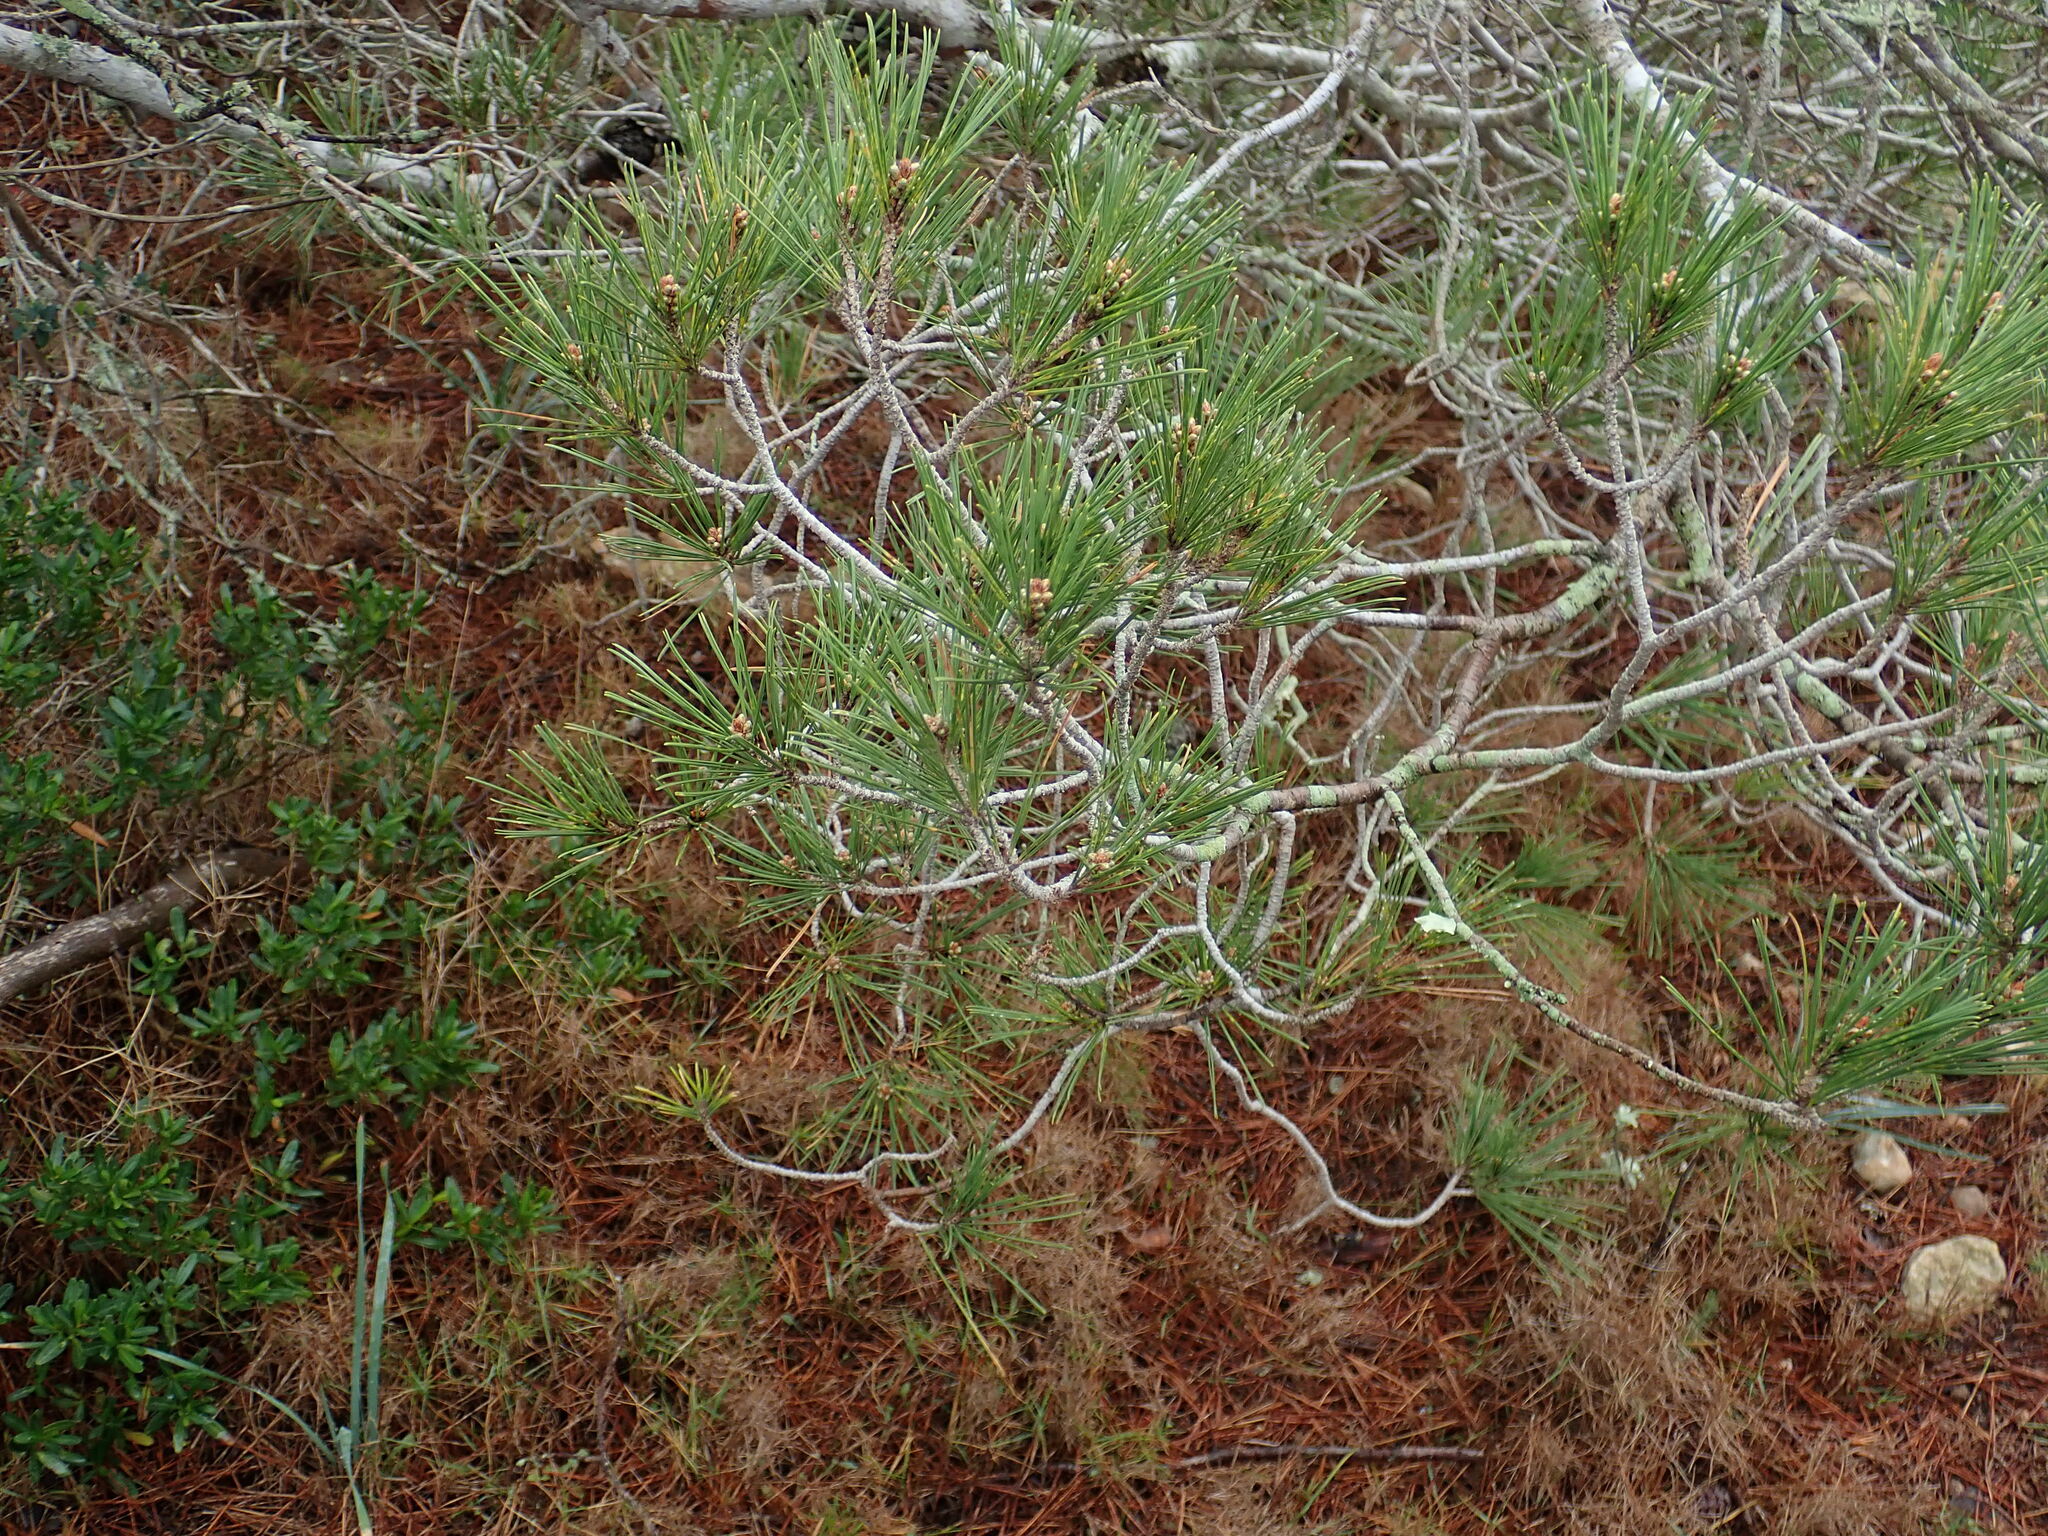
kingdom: Plantae
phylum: Tracheophyta
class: Pinopsida
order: Pinales
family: Pinaceae
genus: Pinus
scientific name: Pinus halepensis
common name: Aleppo pine
